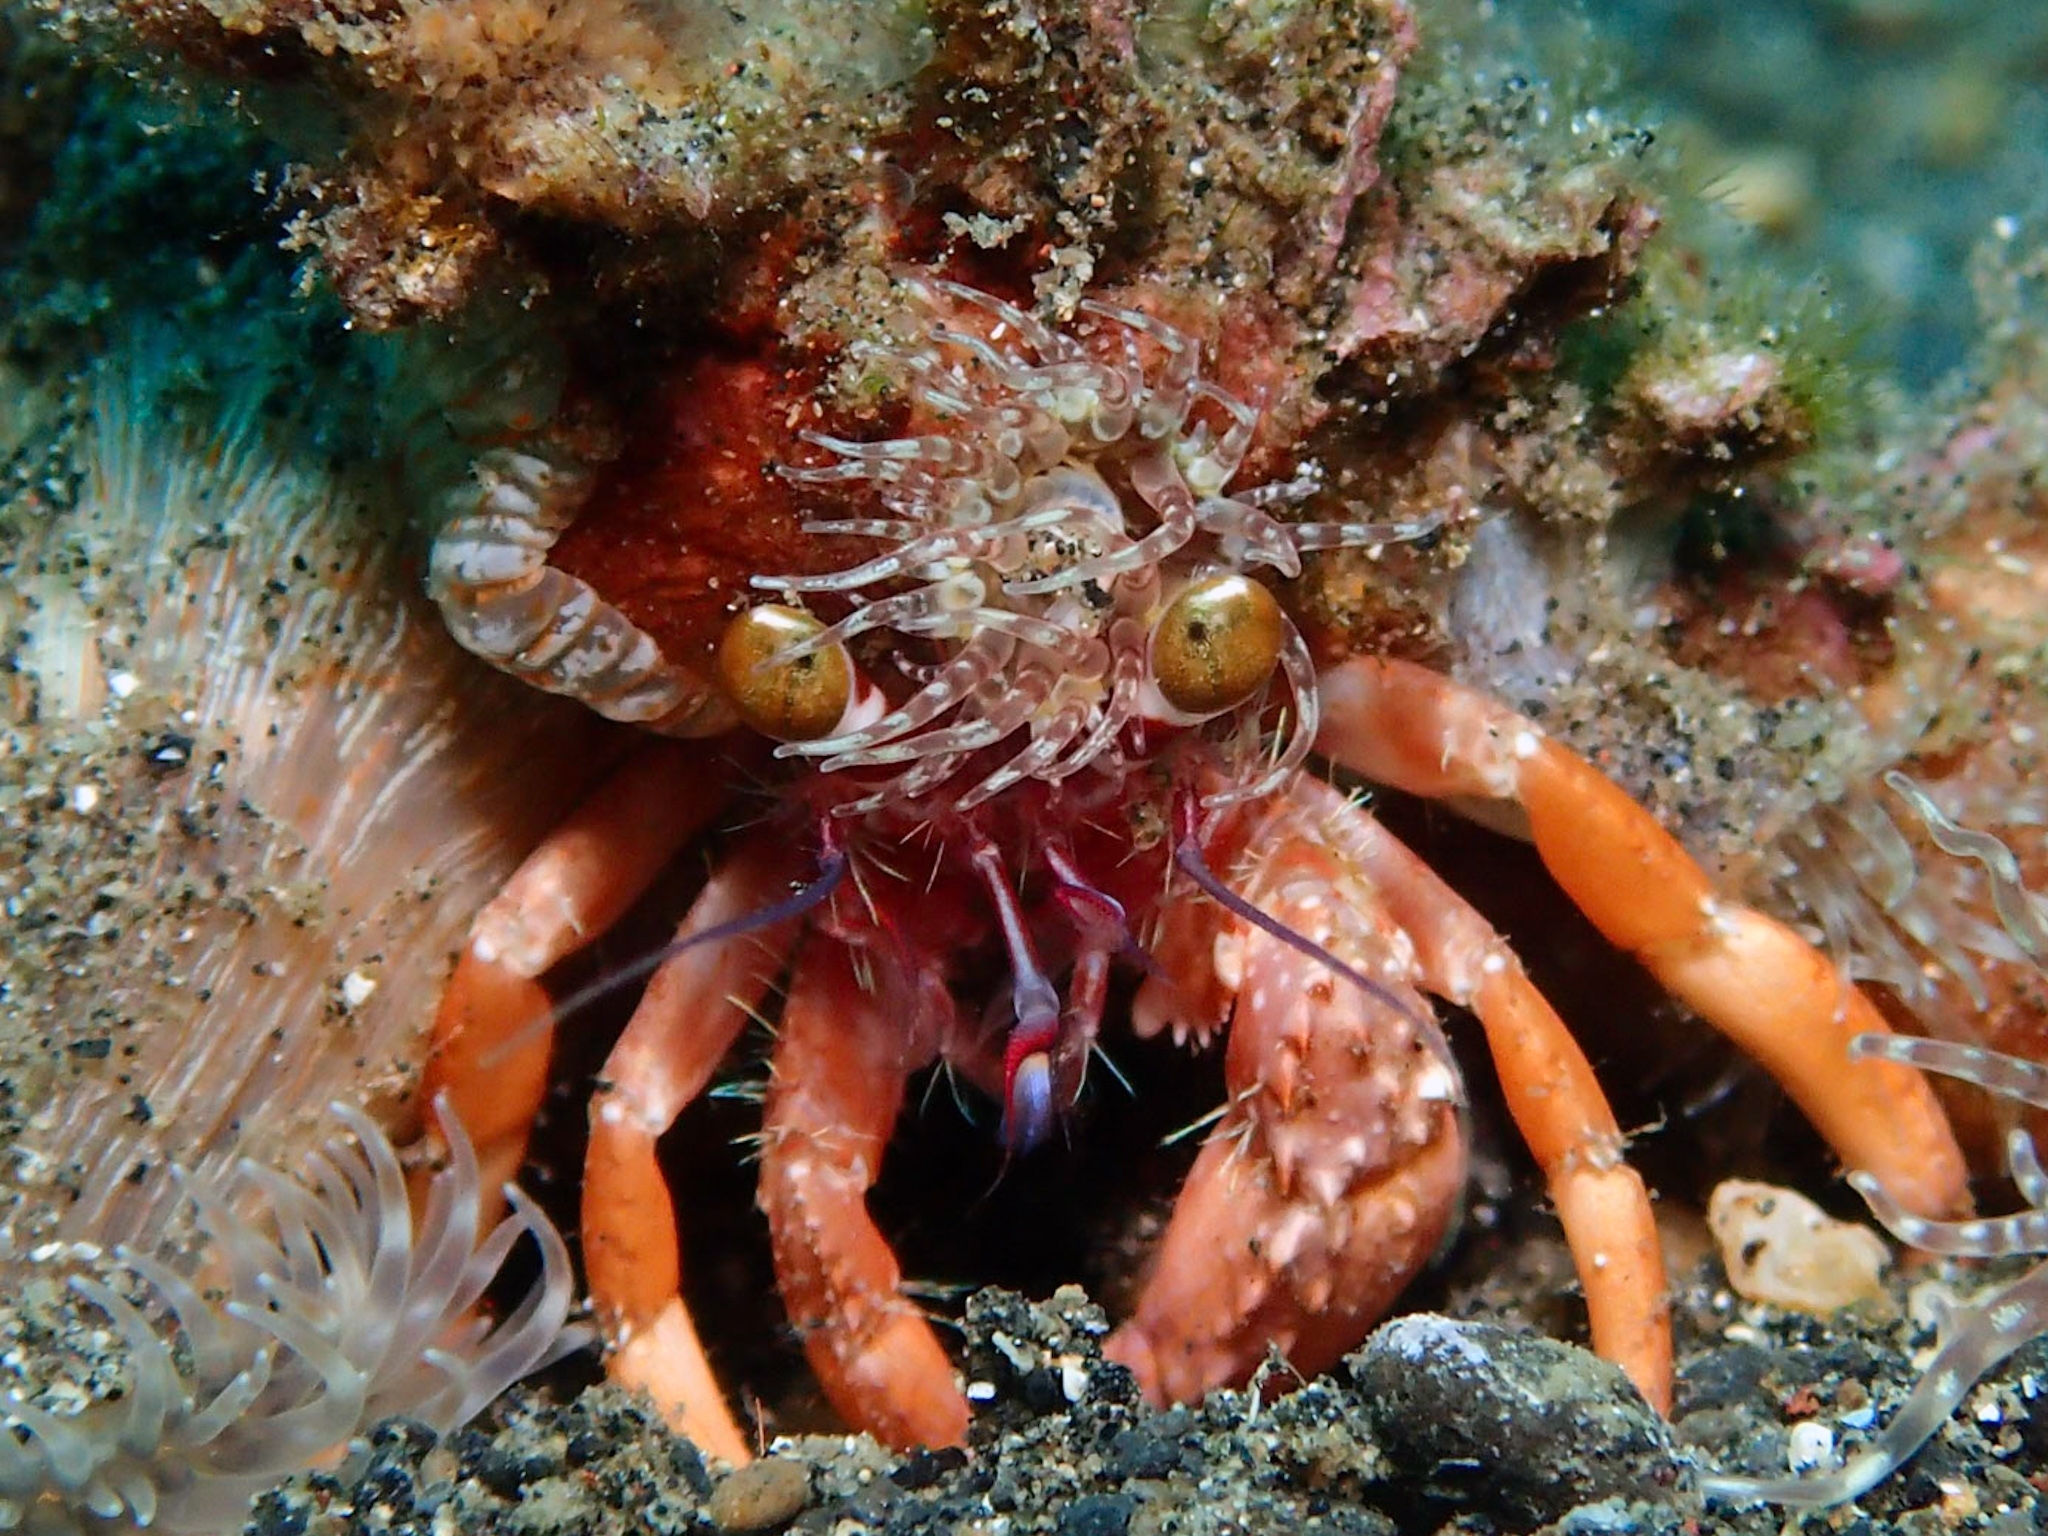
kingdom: Animalia
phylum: Arthropoda
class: Malacostraca
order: Decapoda
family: Diogenidae
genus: Dardanus
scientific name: Dardanus pedunculatus
